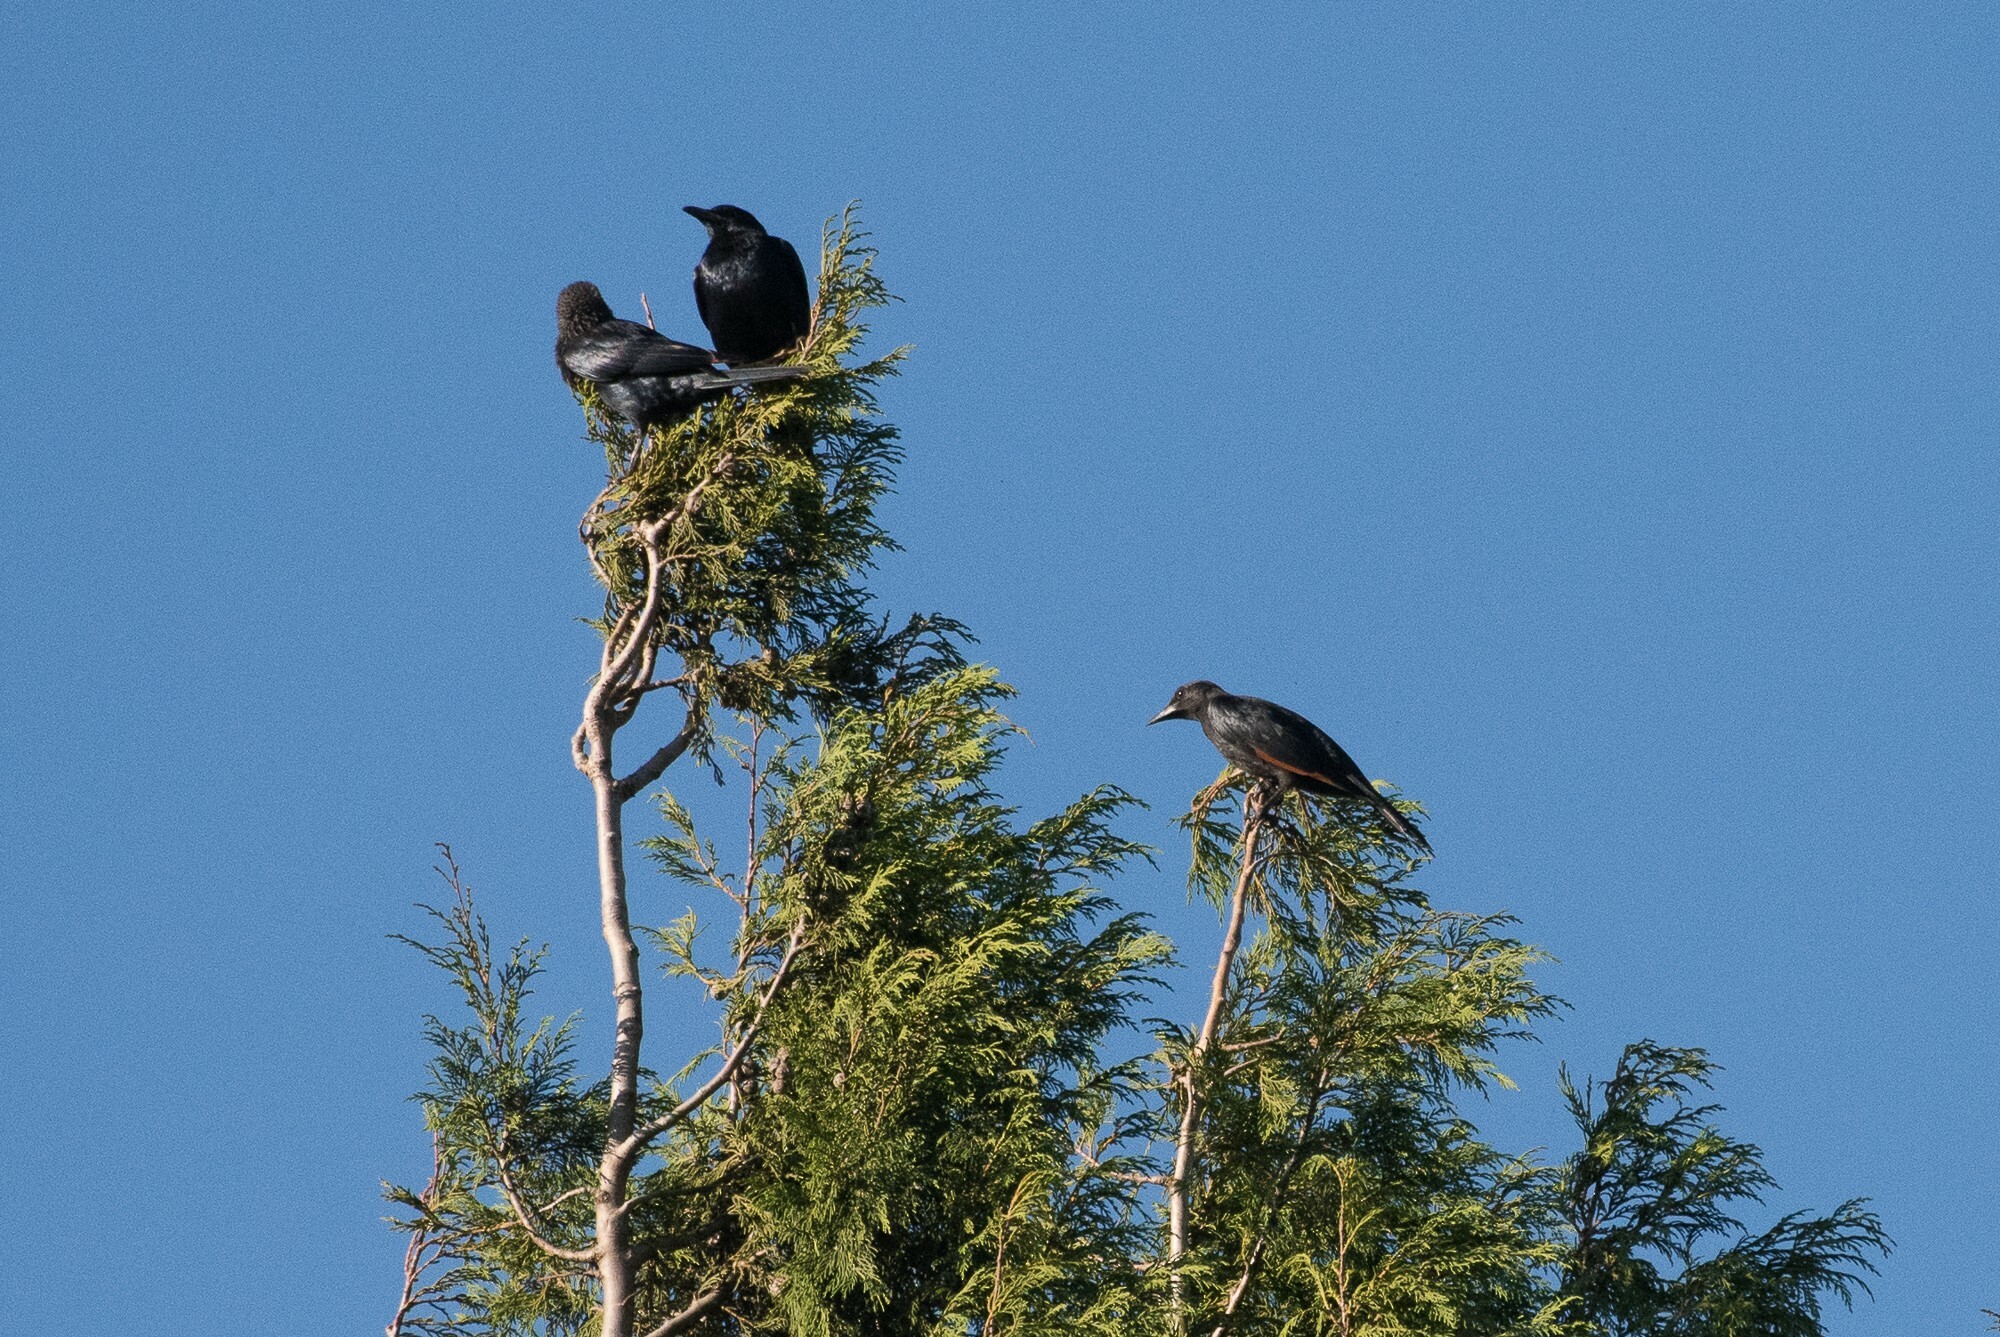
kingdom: Animalia
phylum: Chordata
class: Aves
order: Passeriformes
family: Sturnidae
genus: Onychognathus
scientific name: Onychognathus morio
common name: Red-winged starling
